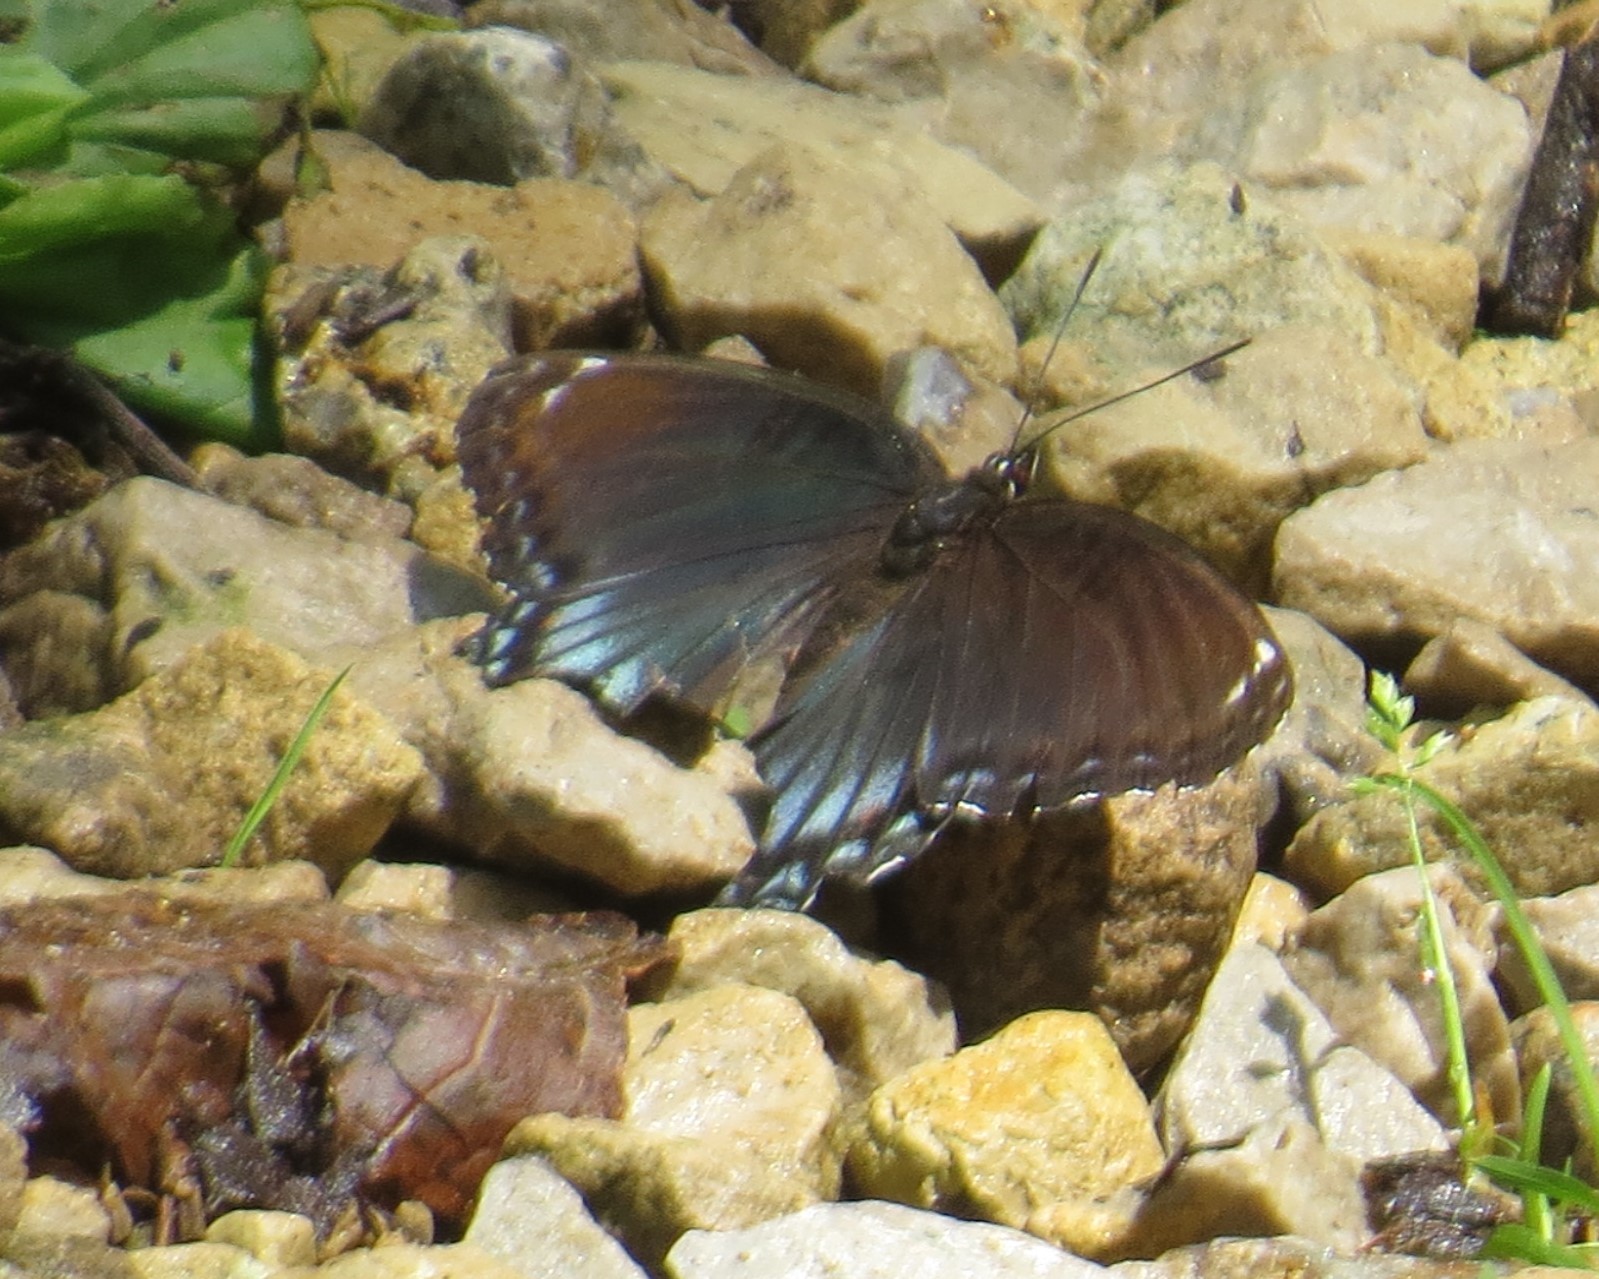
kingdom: Animalia
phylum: Arthropoda
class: Insecta
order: Lepidoptera
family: Nymphalidae
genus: Limenitis
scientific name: Limenitis astyanax
